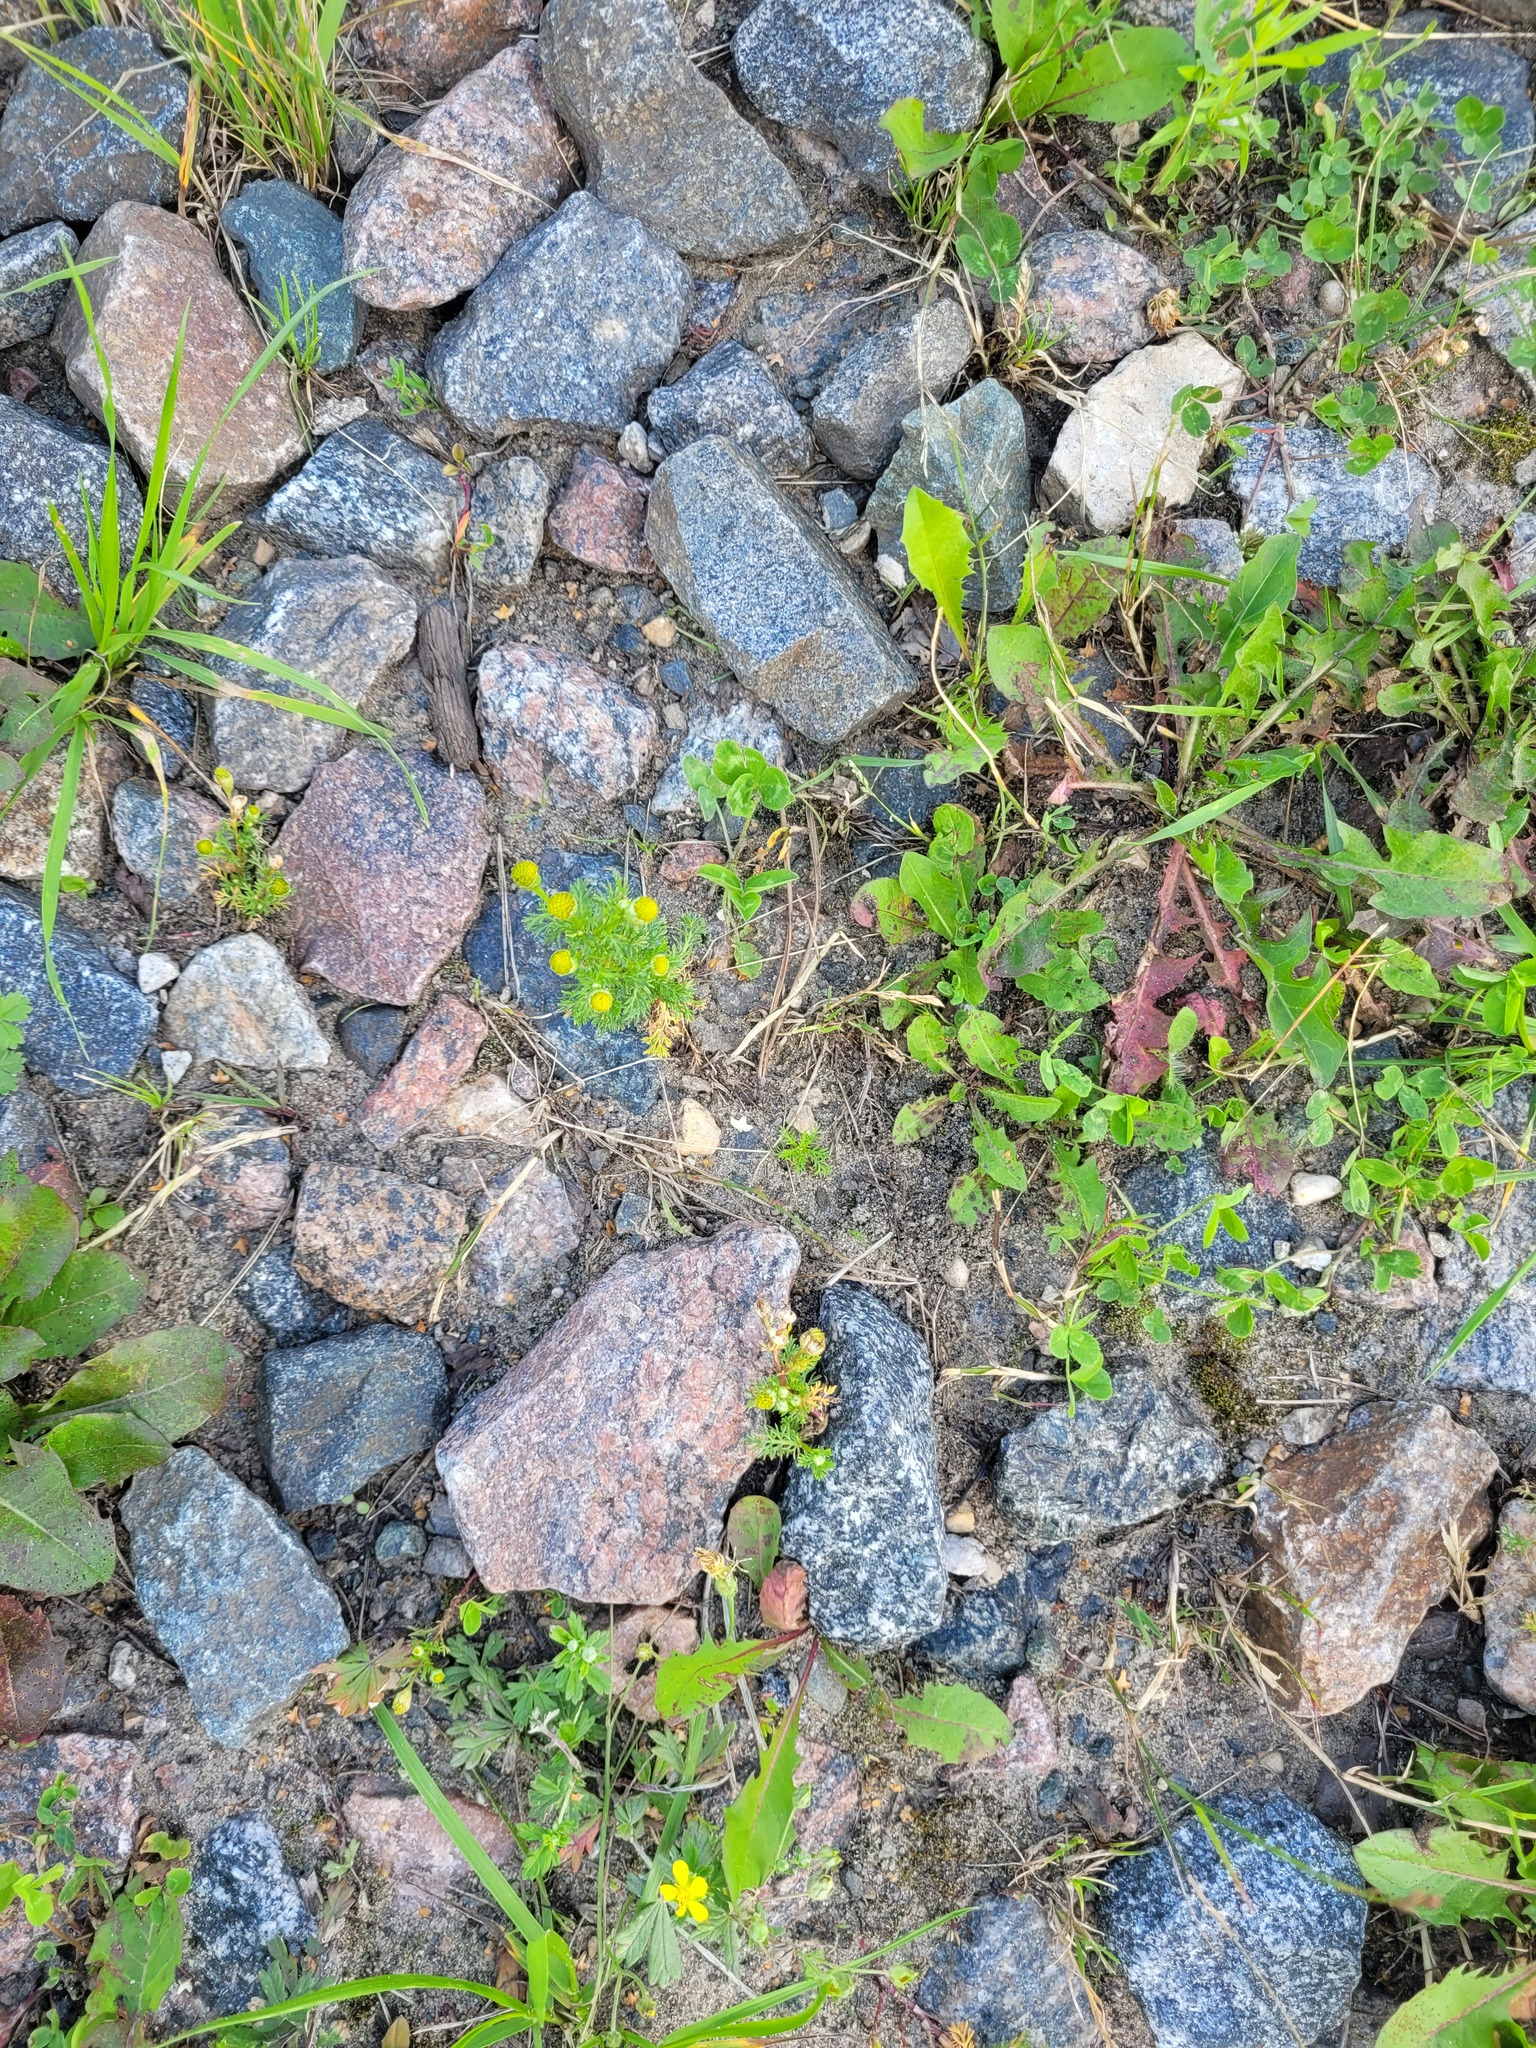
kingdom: Plantae
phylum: Tracheophyta
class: Magnoliopsida
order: Asterales
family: Asteraceae
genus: Matricaria
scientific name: Matricaria discoidea
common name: Disc mayweed
